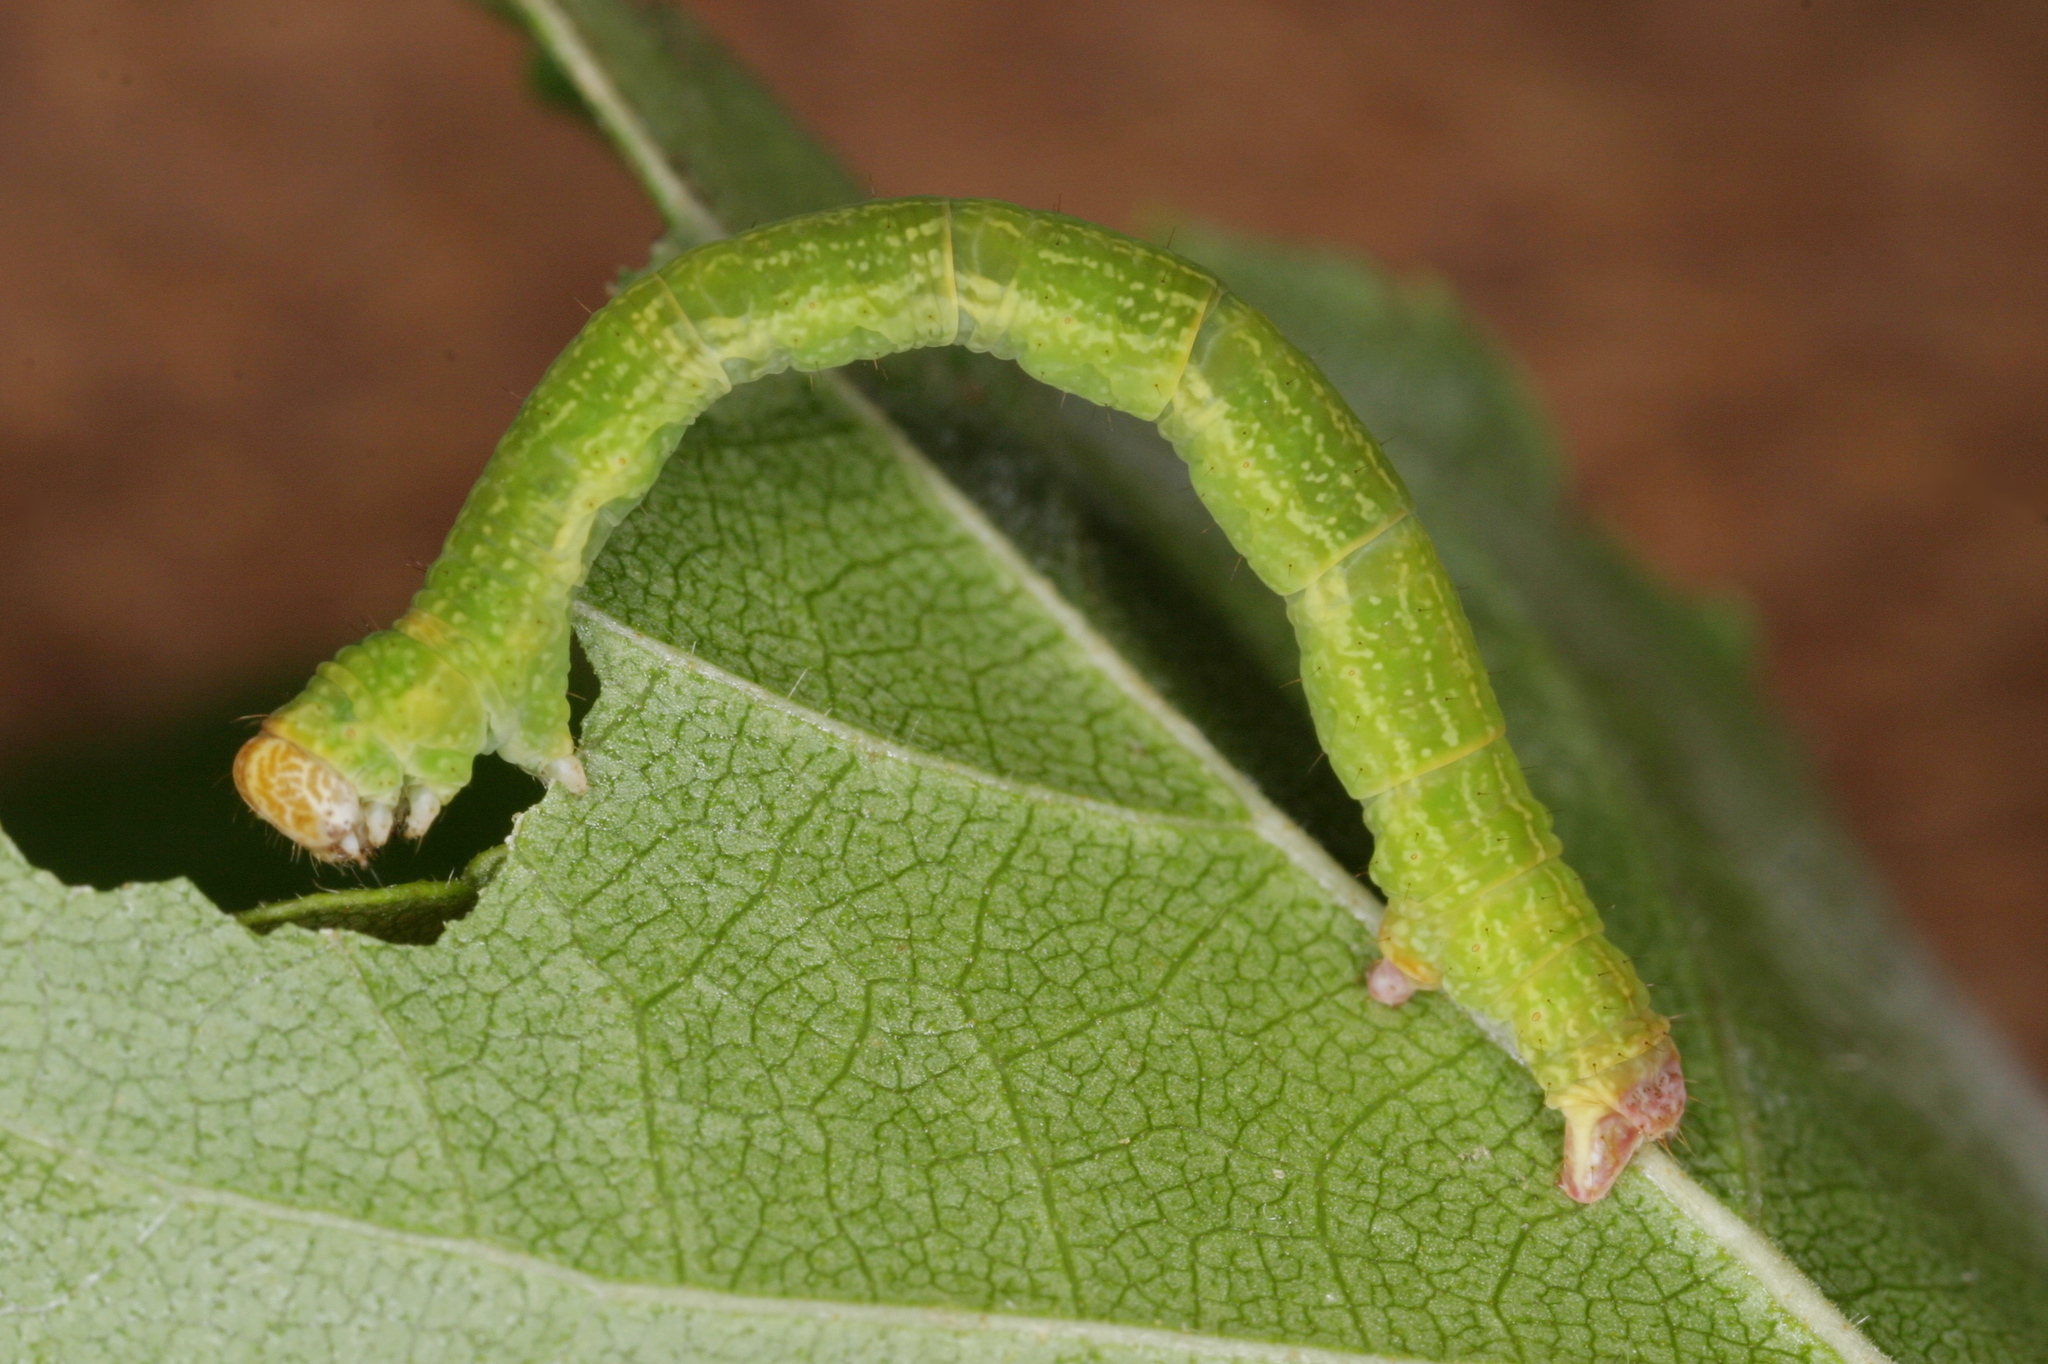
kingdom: Animalia
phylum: Arthropoda
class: Insecta
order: Lepidoptera
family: Geometridae
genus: Cyclophora
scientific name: Cyclophora albipunctata
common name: Birch mocha
